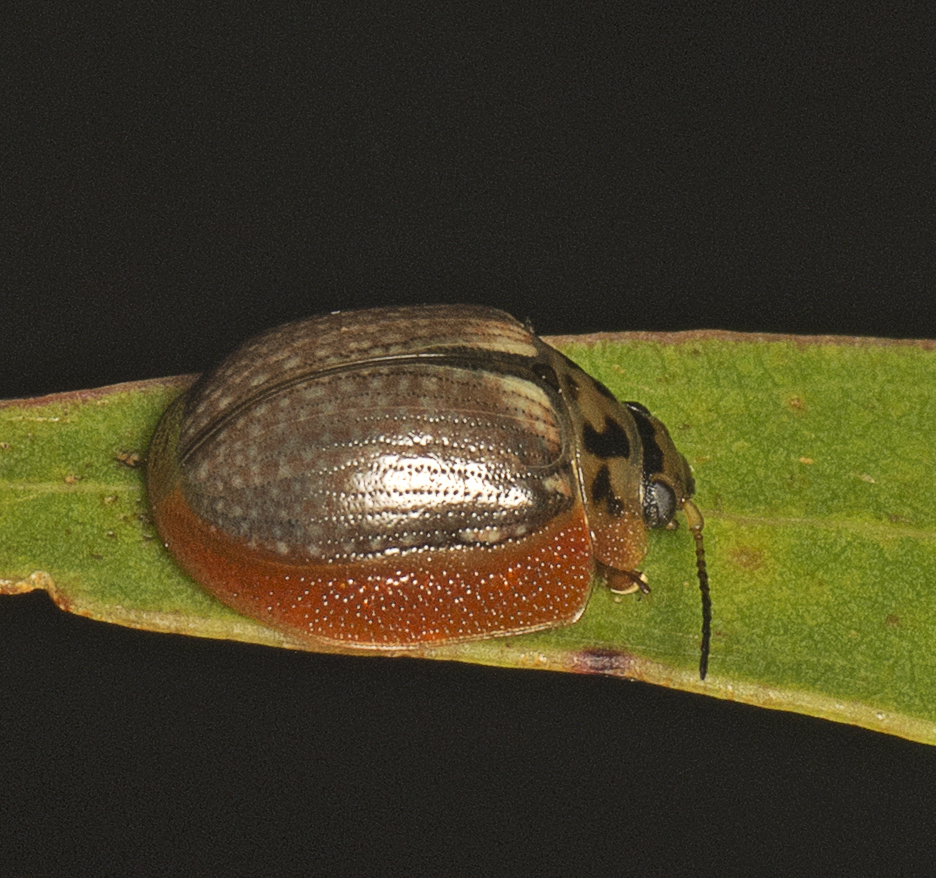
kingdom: Animalia
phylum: Arthropoda
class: Insecta
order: Coleoptera
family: Chrysomelidae
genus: Paropsisterna
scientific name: Paropsisterna agricola
